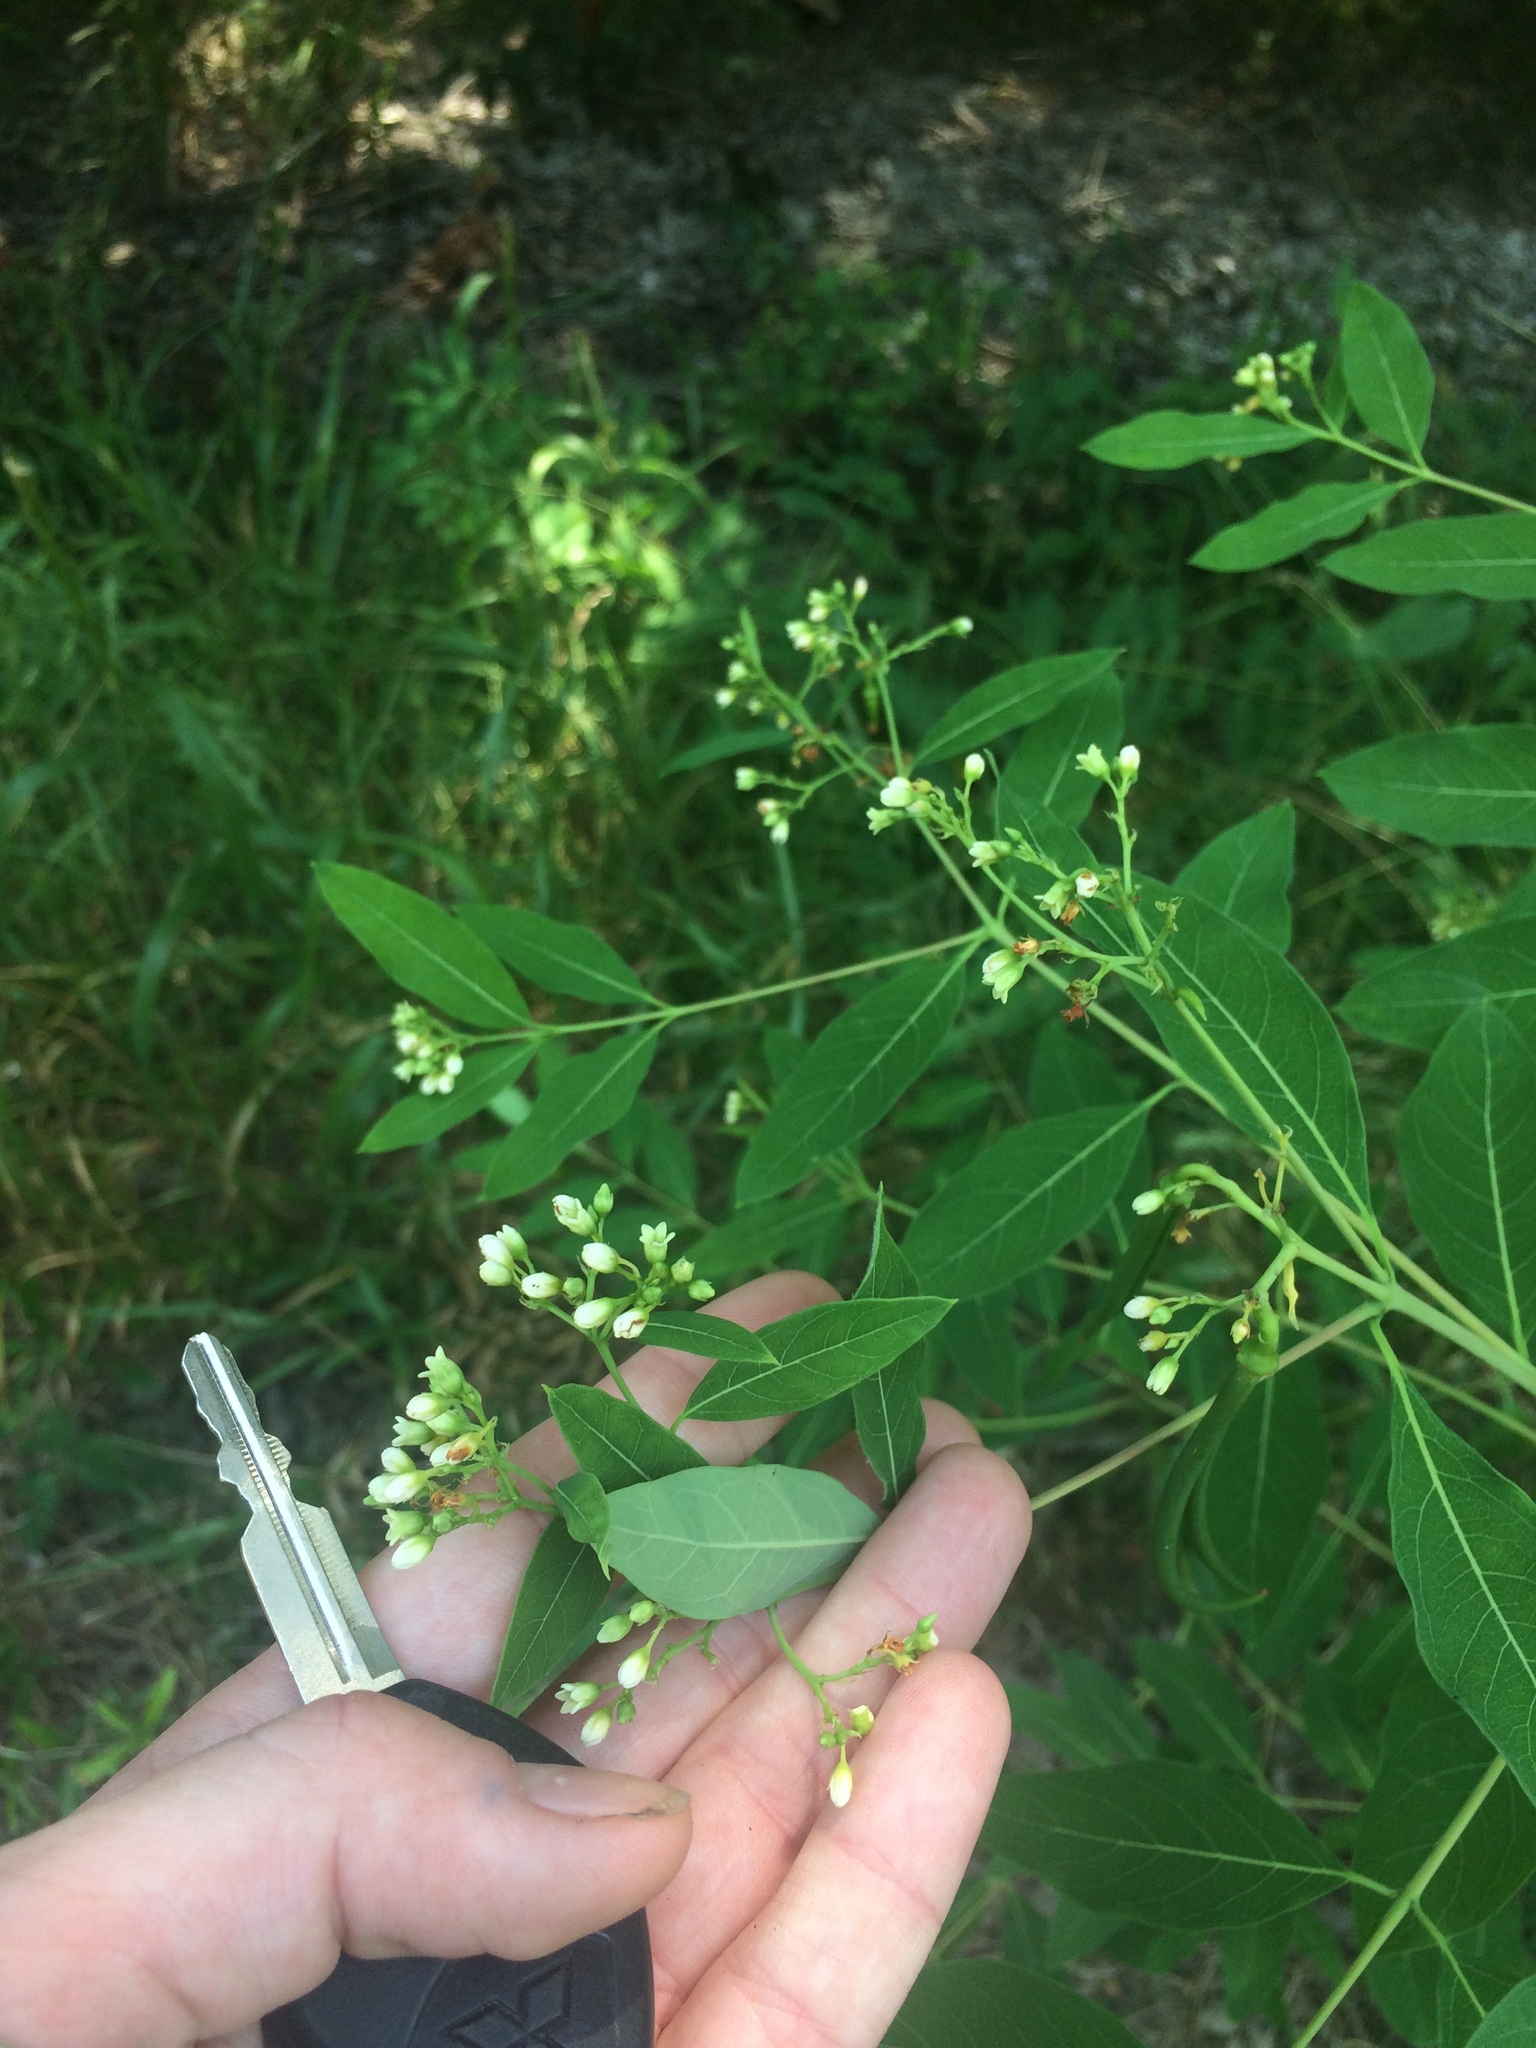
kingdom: Plantae
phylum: Tracheophyta
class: Magnoliopsida
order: Gentianales
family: Apocynaceae
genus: Apocynum
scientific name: Apocynum cannabinum
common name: Hemp dogbane
